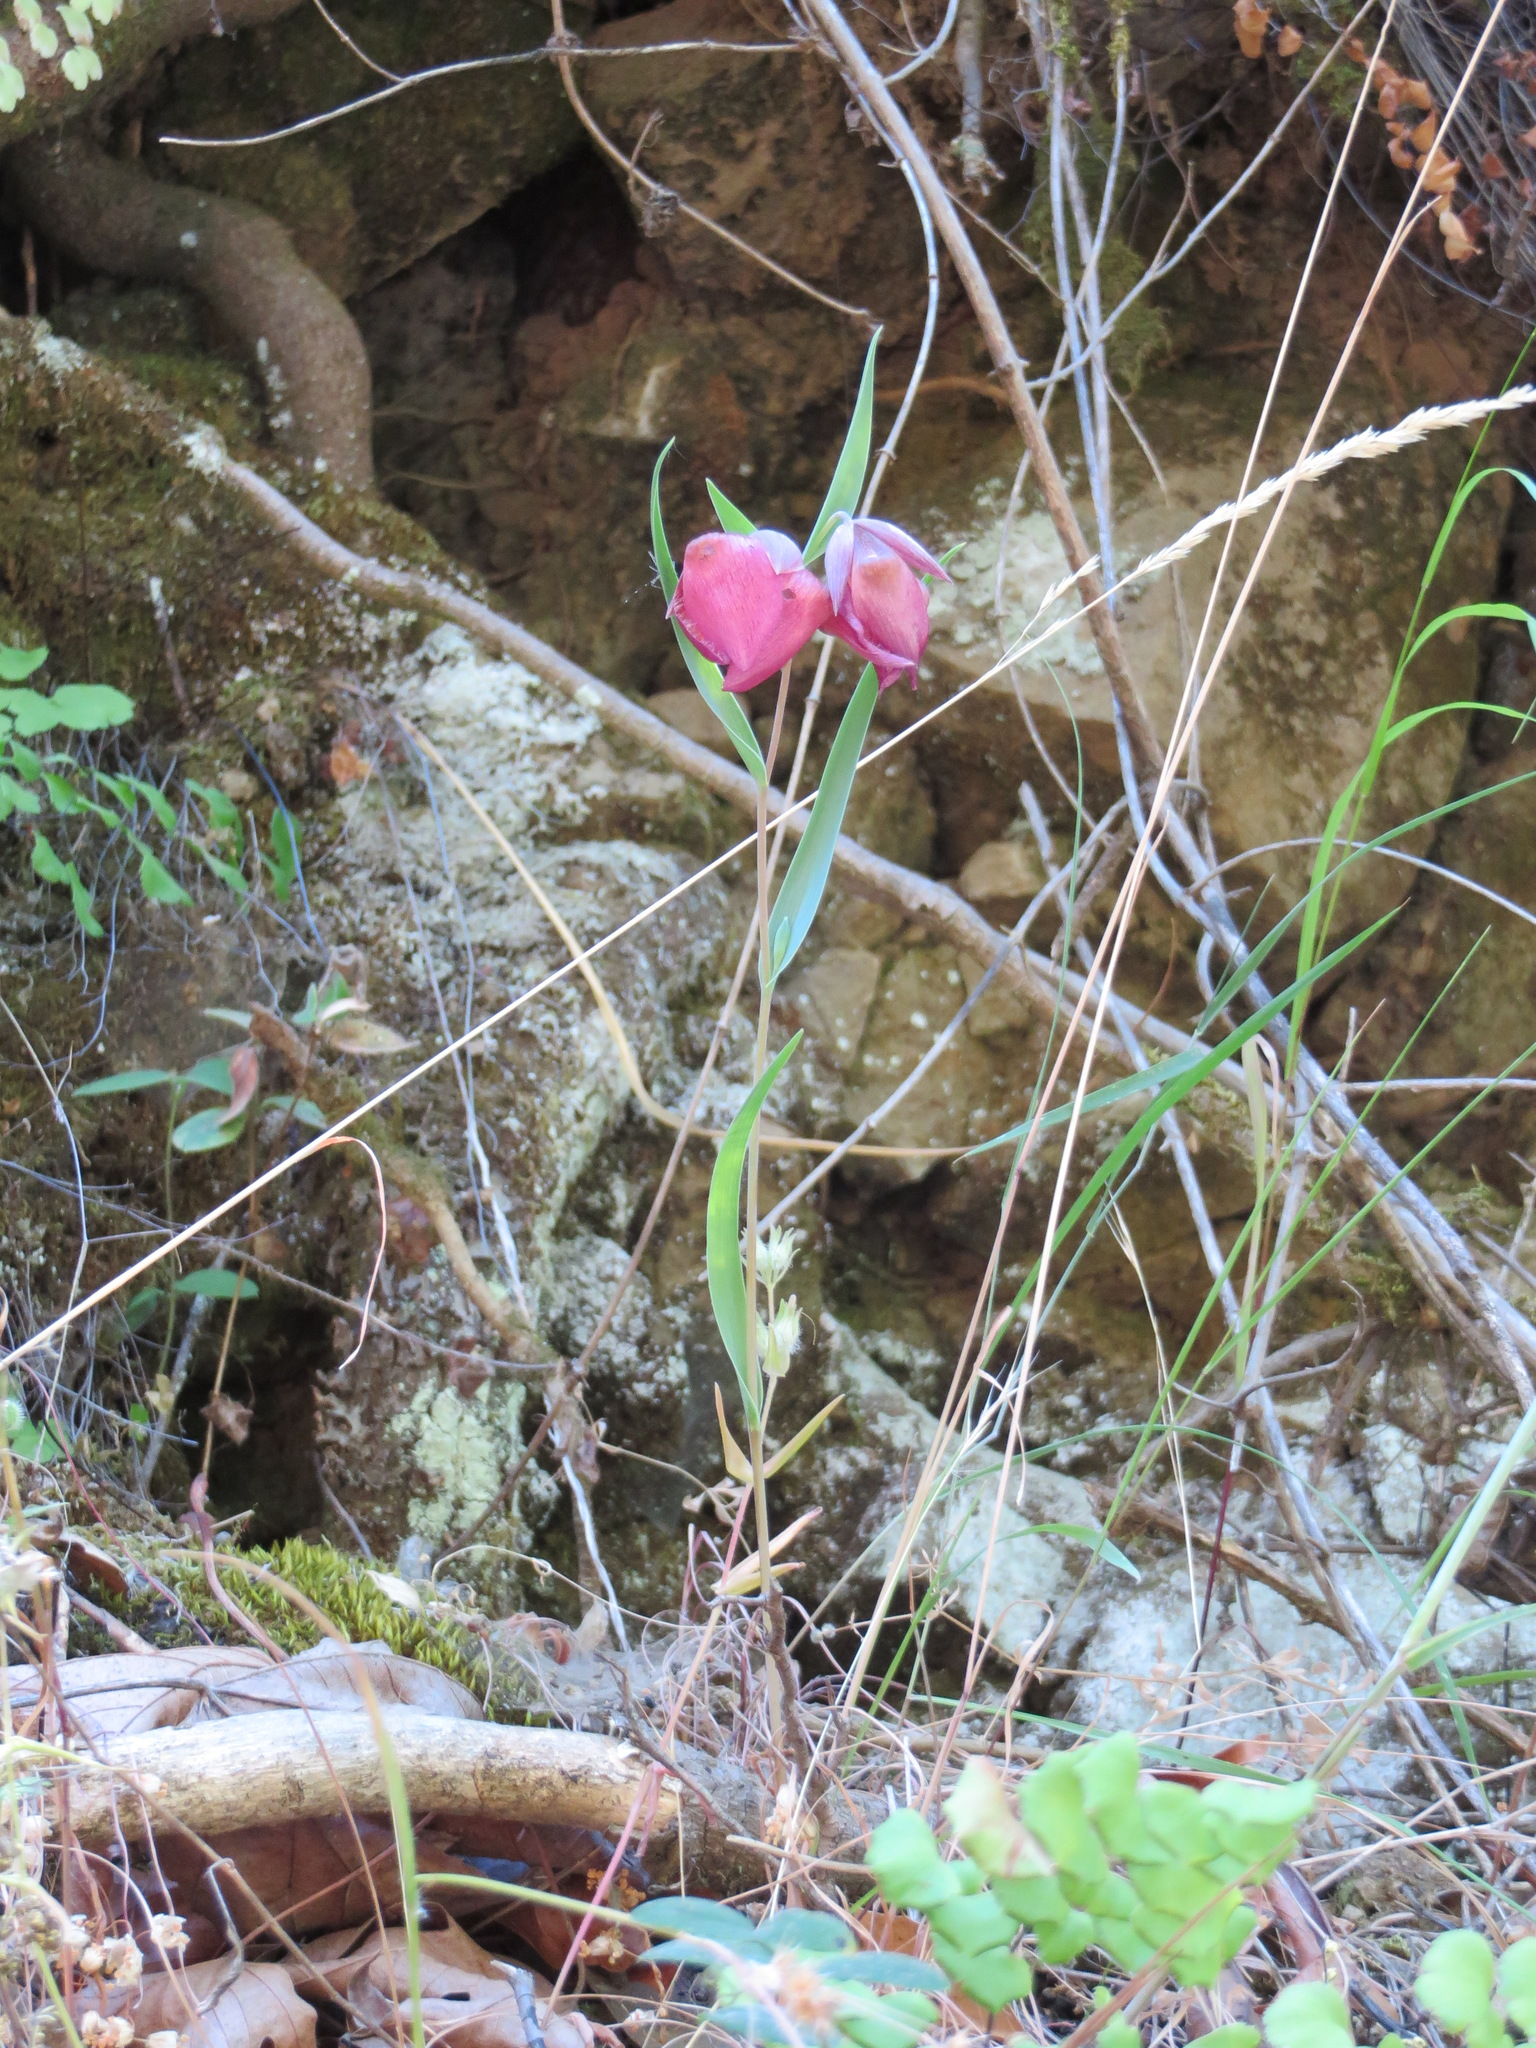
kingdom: Plantae
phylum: Tracheophyta
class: Liliopsida
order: Liliales
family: Liliaceae
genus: Calochortus
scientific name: Calochortus albus
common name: Fairy-lantern
